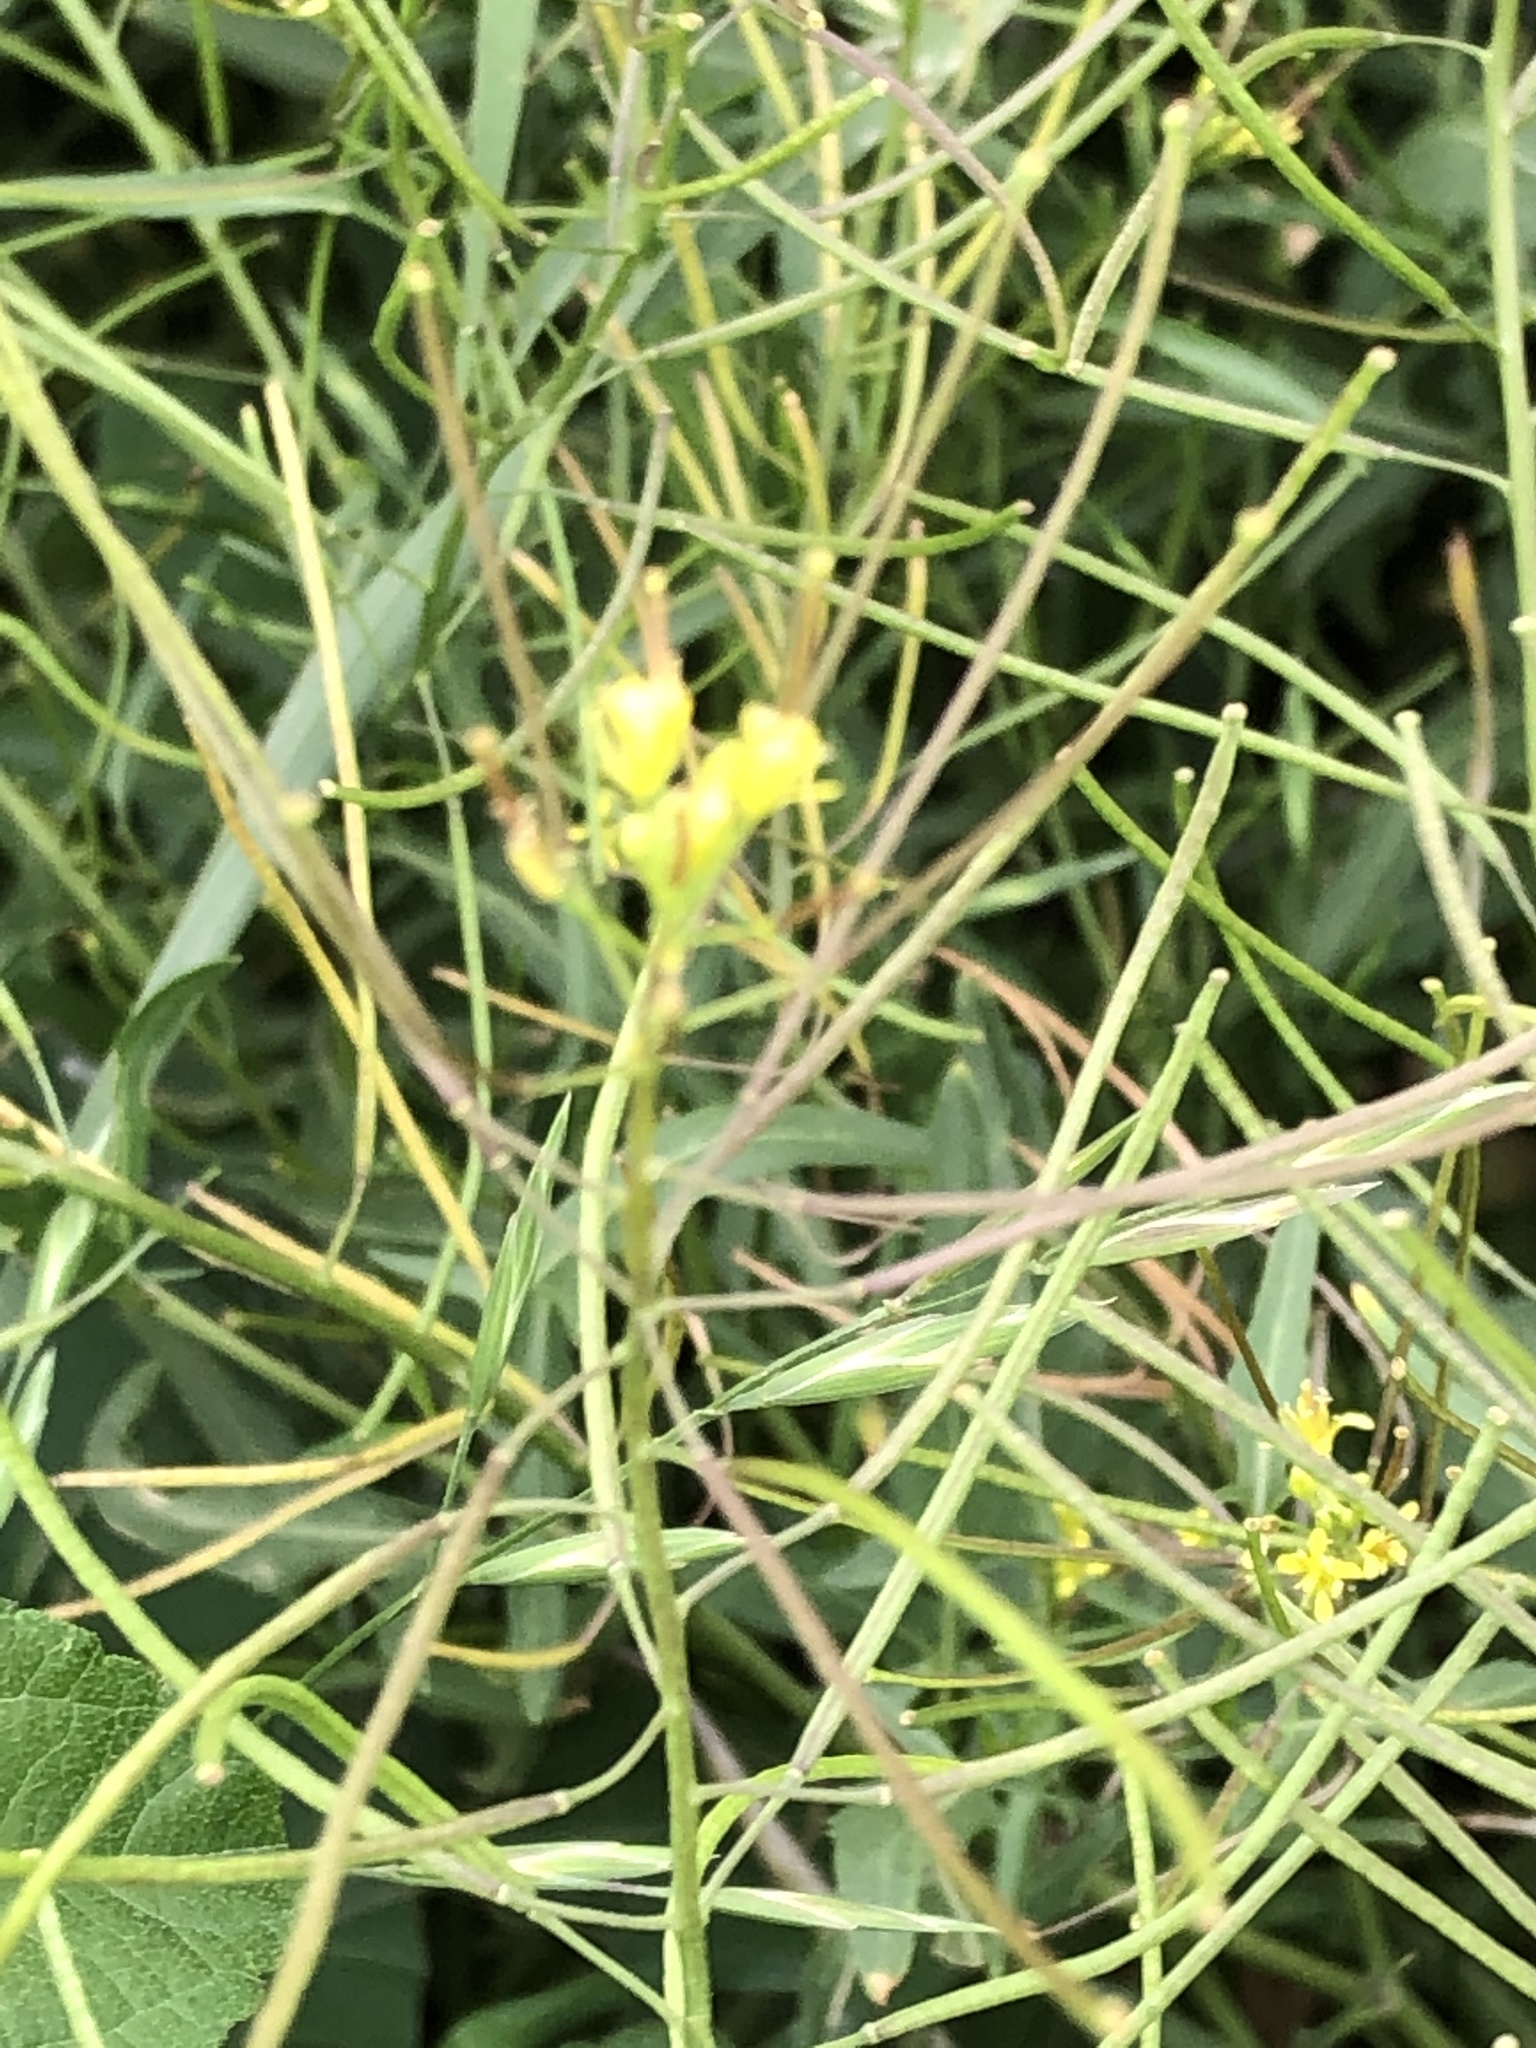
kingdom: Plantae
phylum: Tracheophyta
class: Magnoliopsida
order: Brassicales
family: Brassicaceae
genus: Sisymbrium
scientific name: Sisymbrium irio
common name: London rocket
